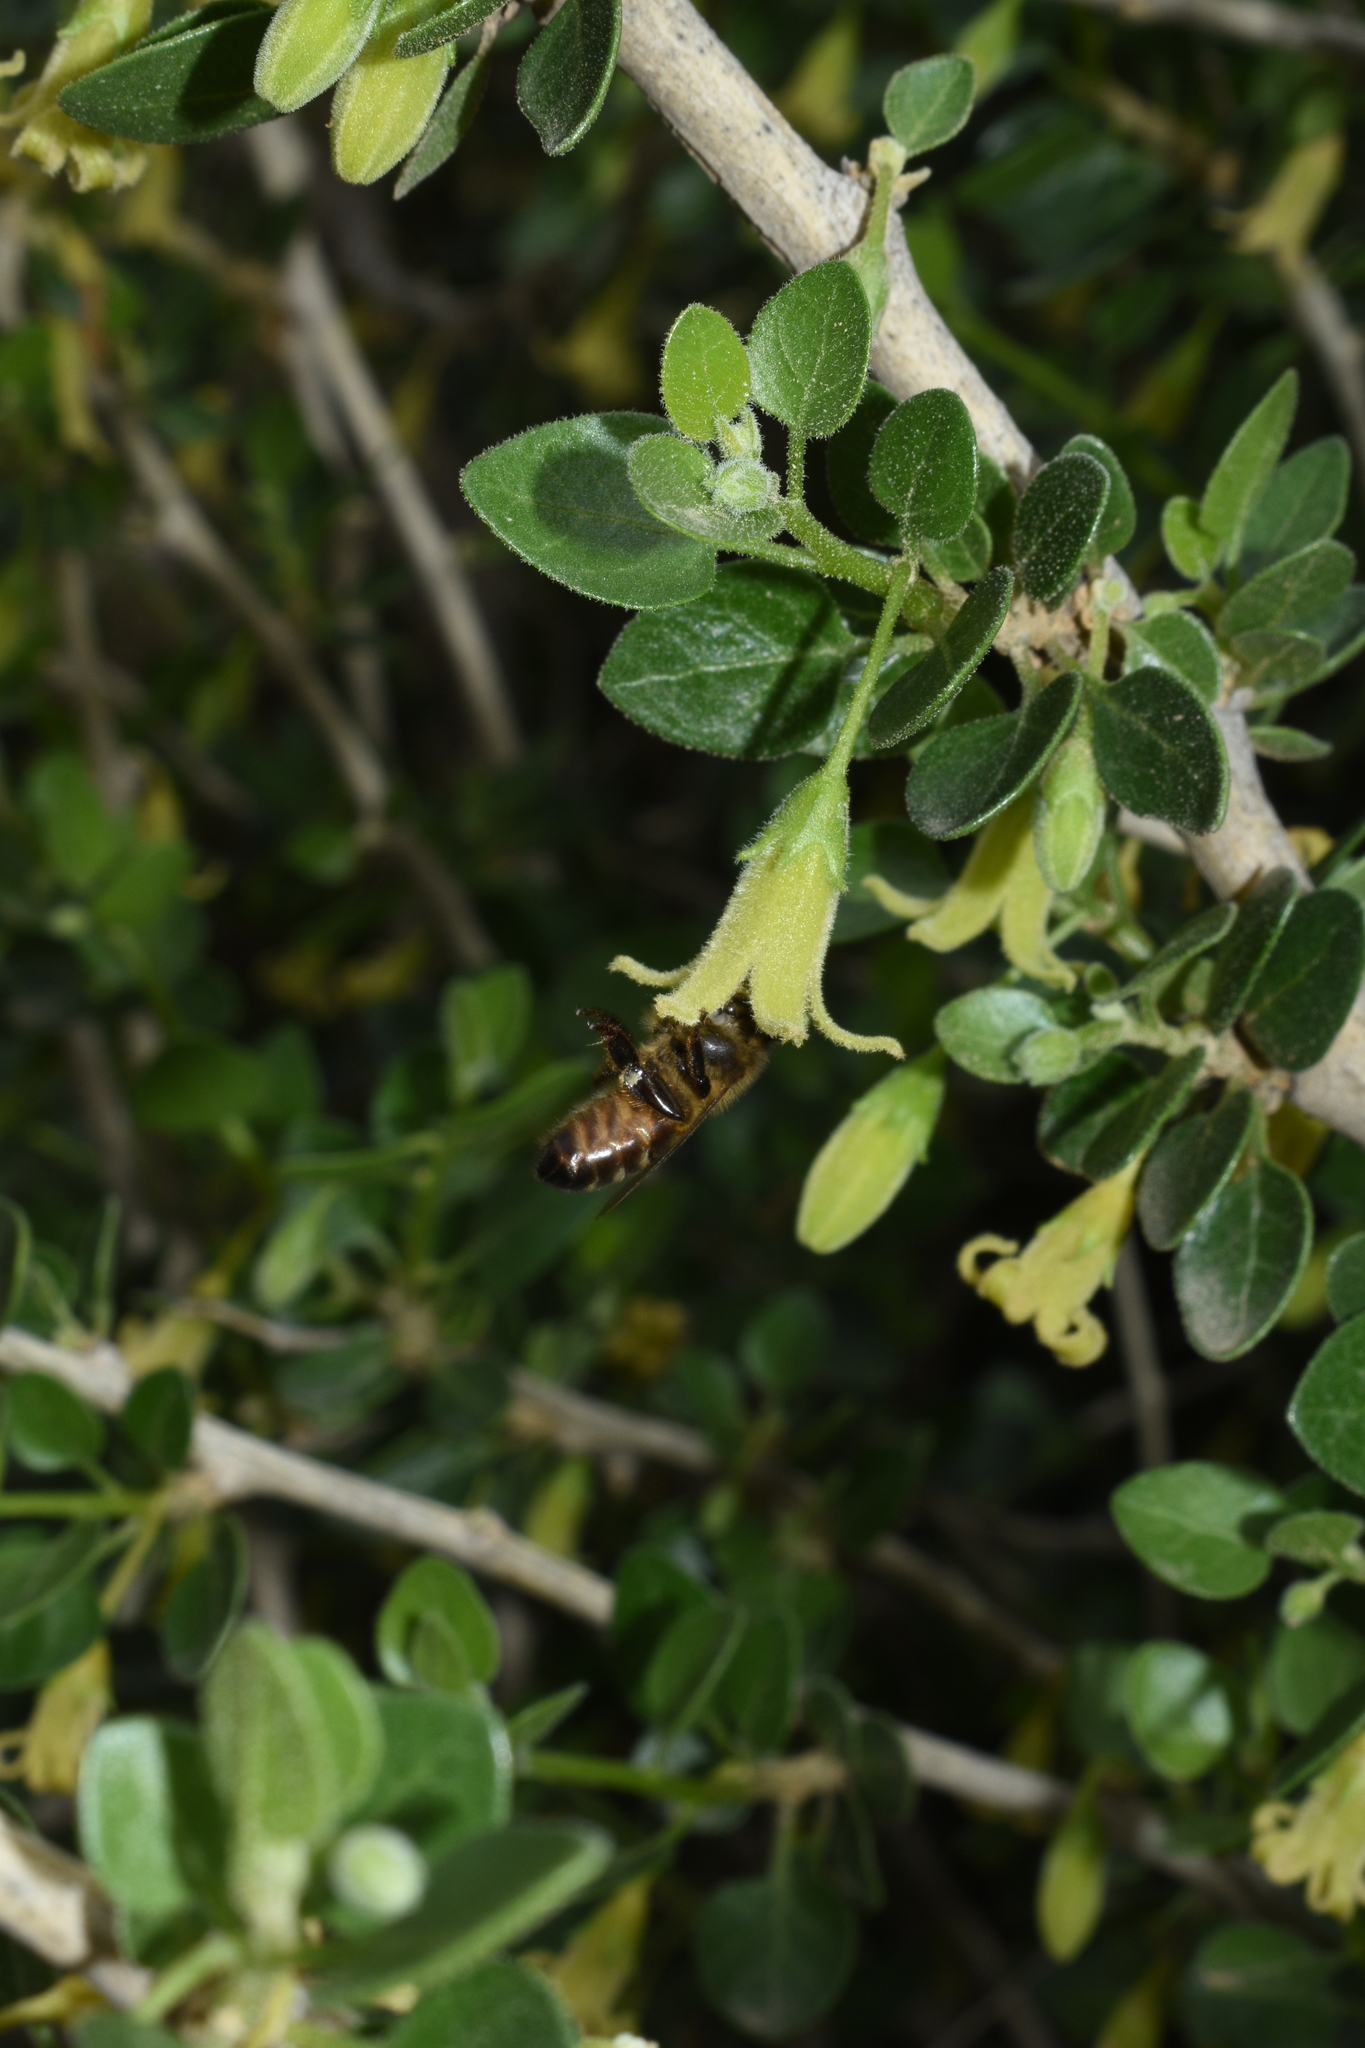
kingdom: Animalia
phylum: Arthropoda
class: Insecta
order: Hymenoptera
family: Apidae
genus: Apis
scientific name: Apis mellifera
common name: Honey bee
